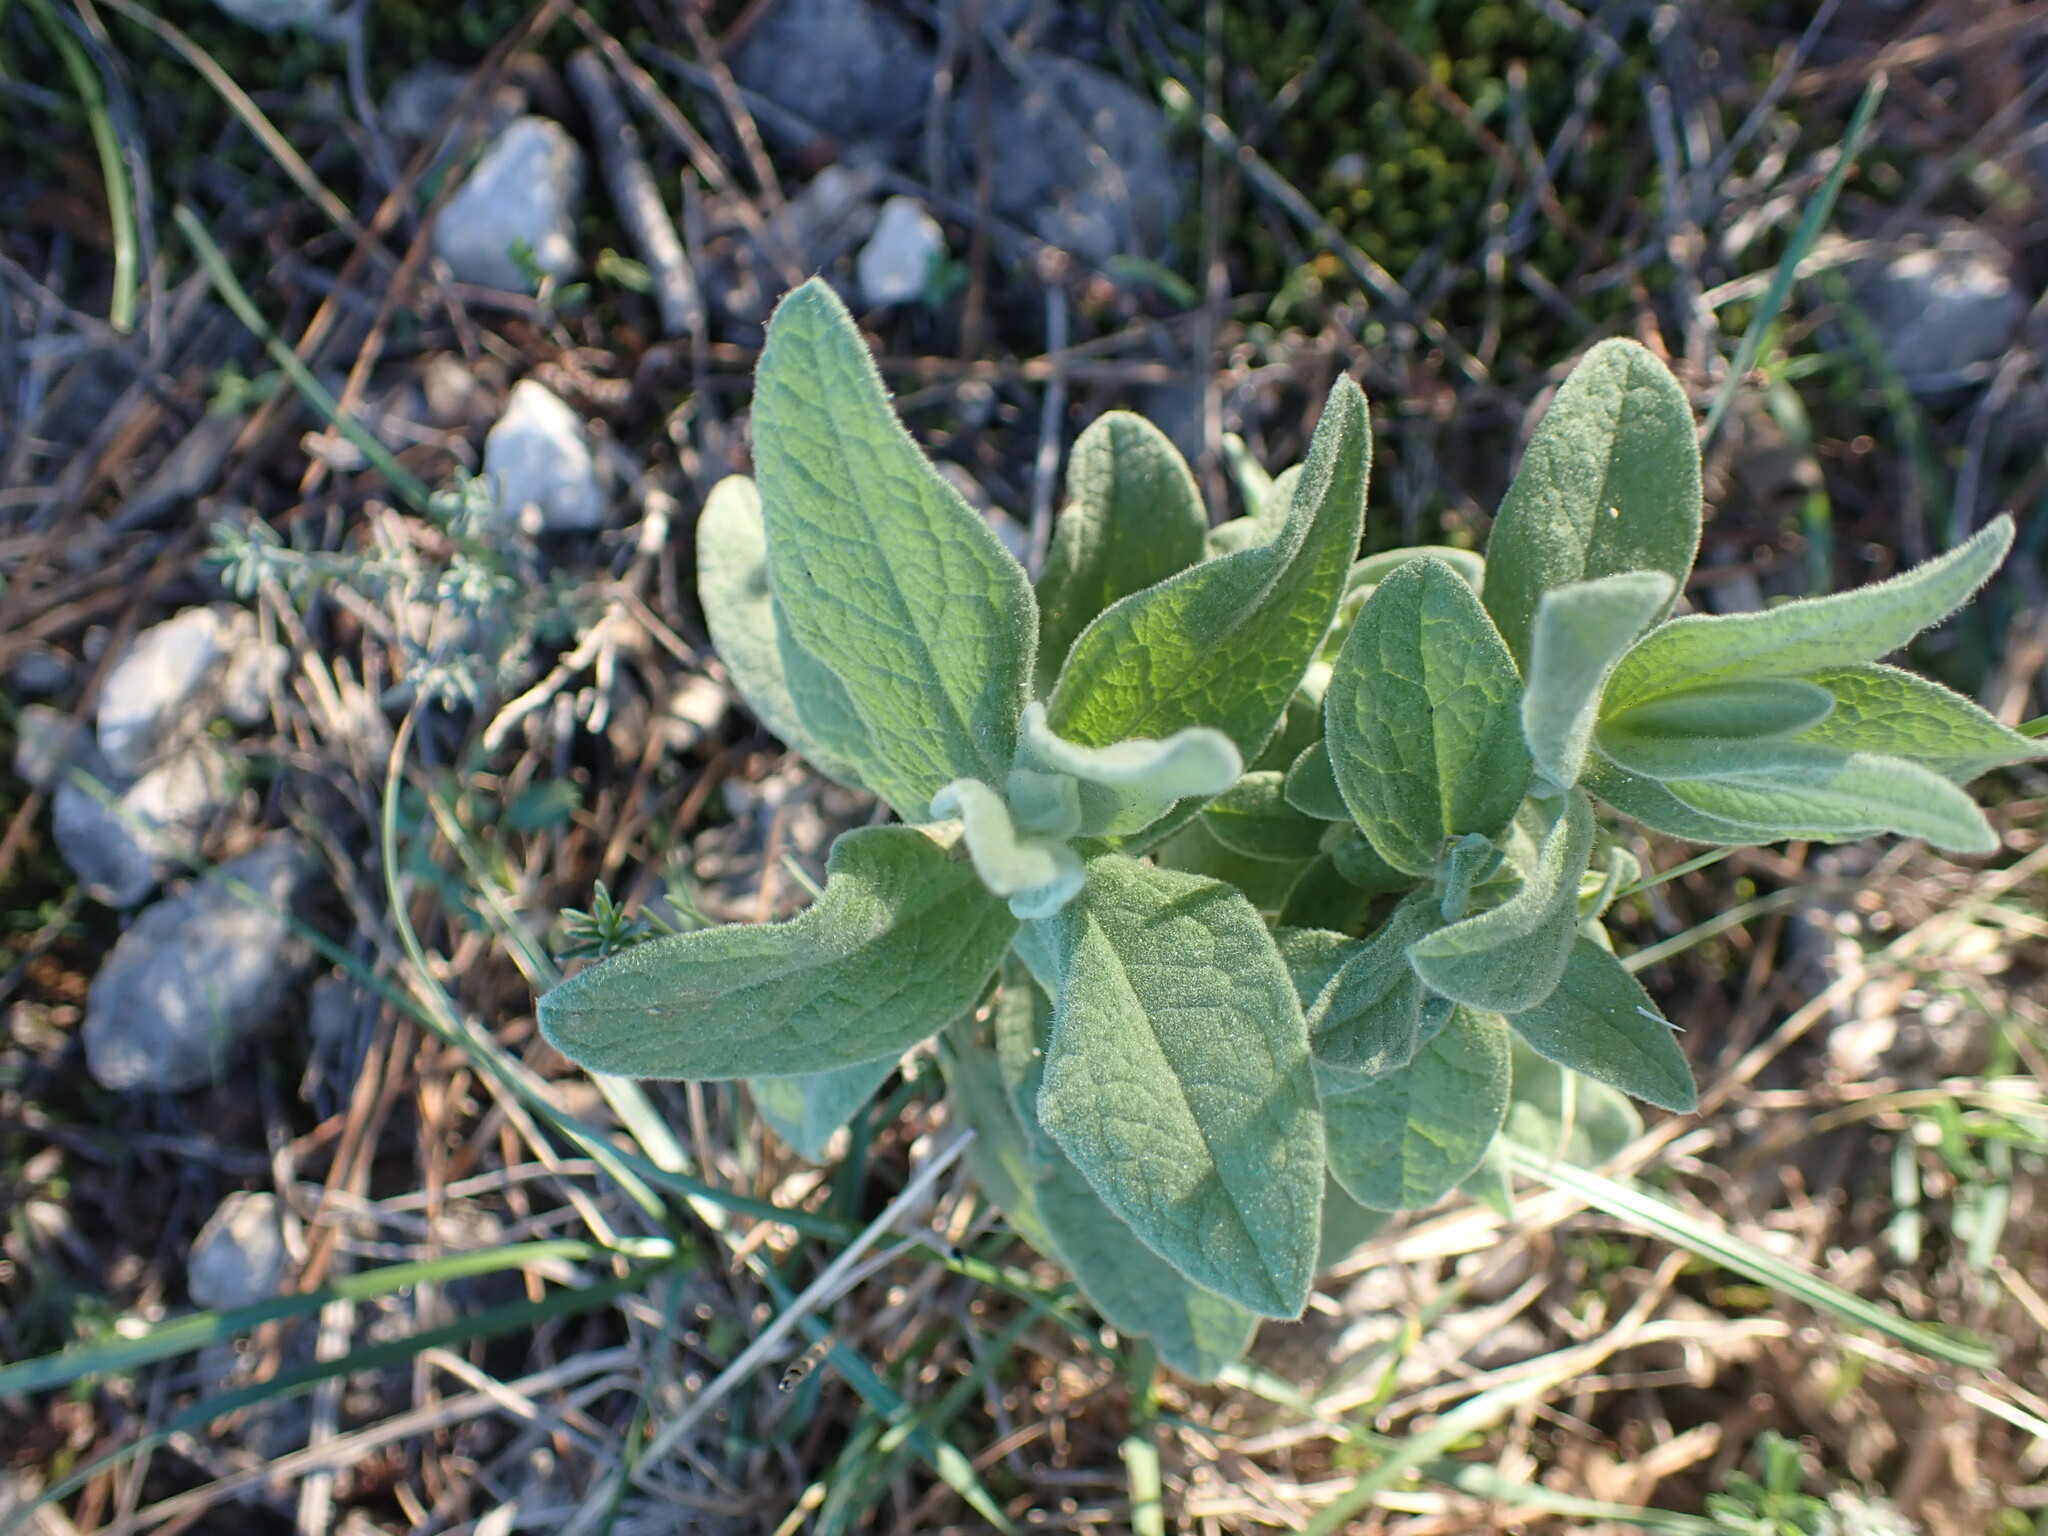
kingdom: Plantae
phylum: Tracheophyta
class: Magnoliopsida
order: Malvales
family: Cistaceae
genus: Cistus
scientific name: Cistus albidus
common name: White-leaf rock-rose
